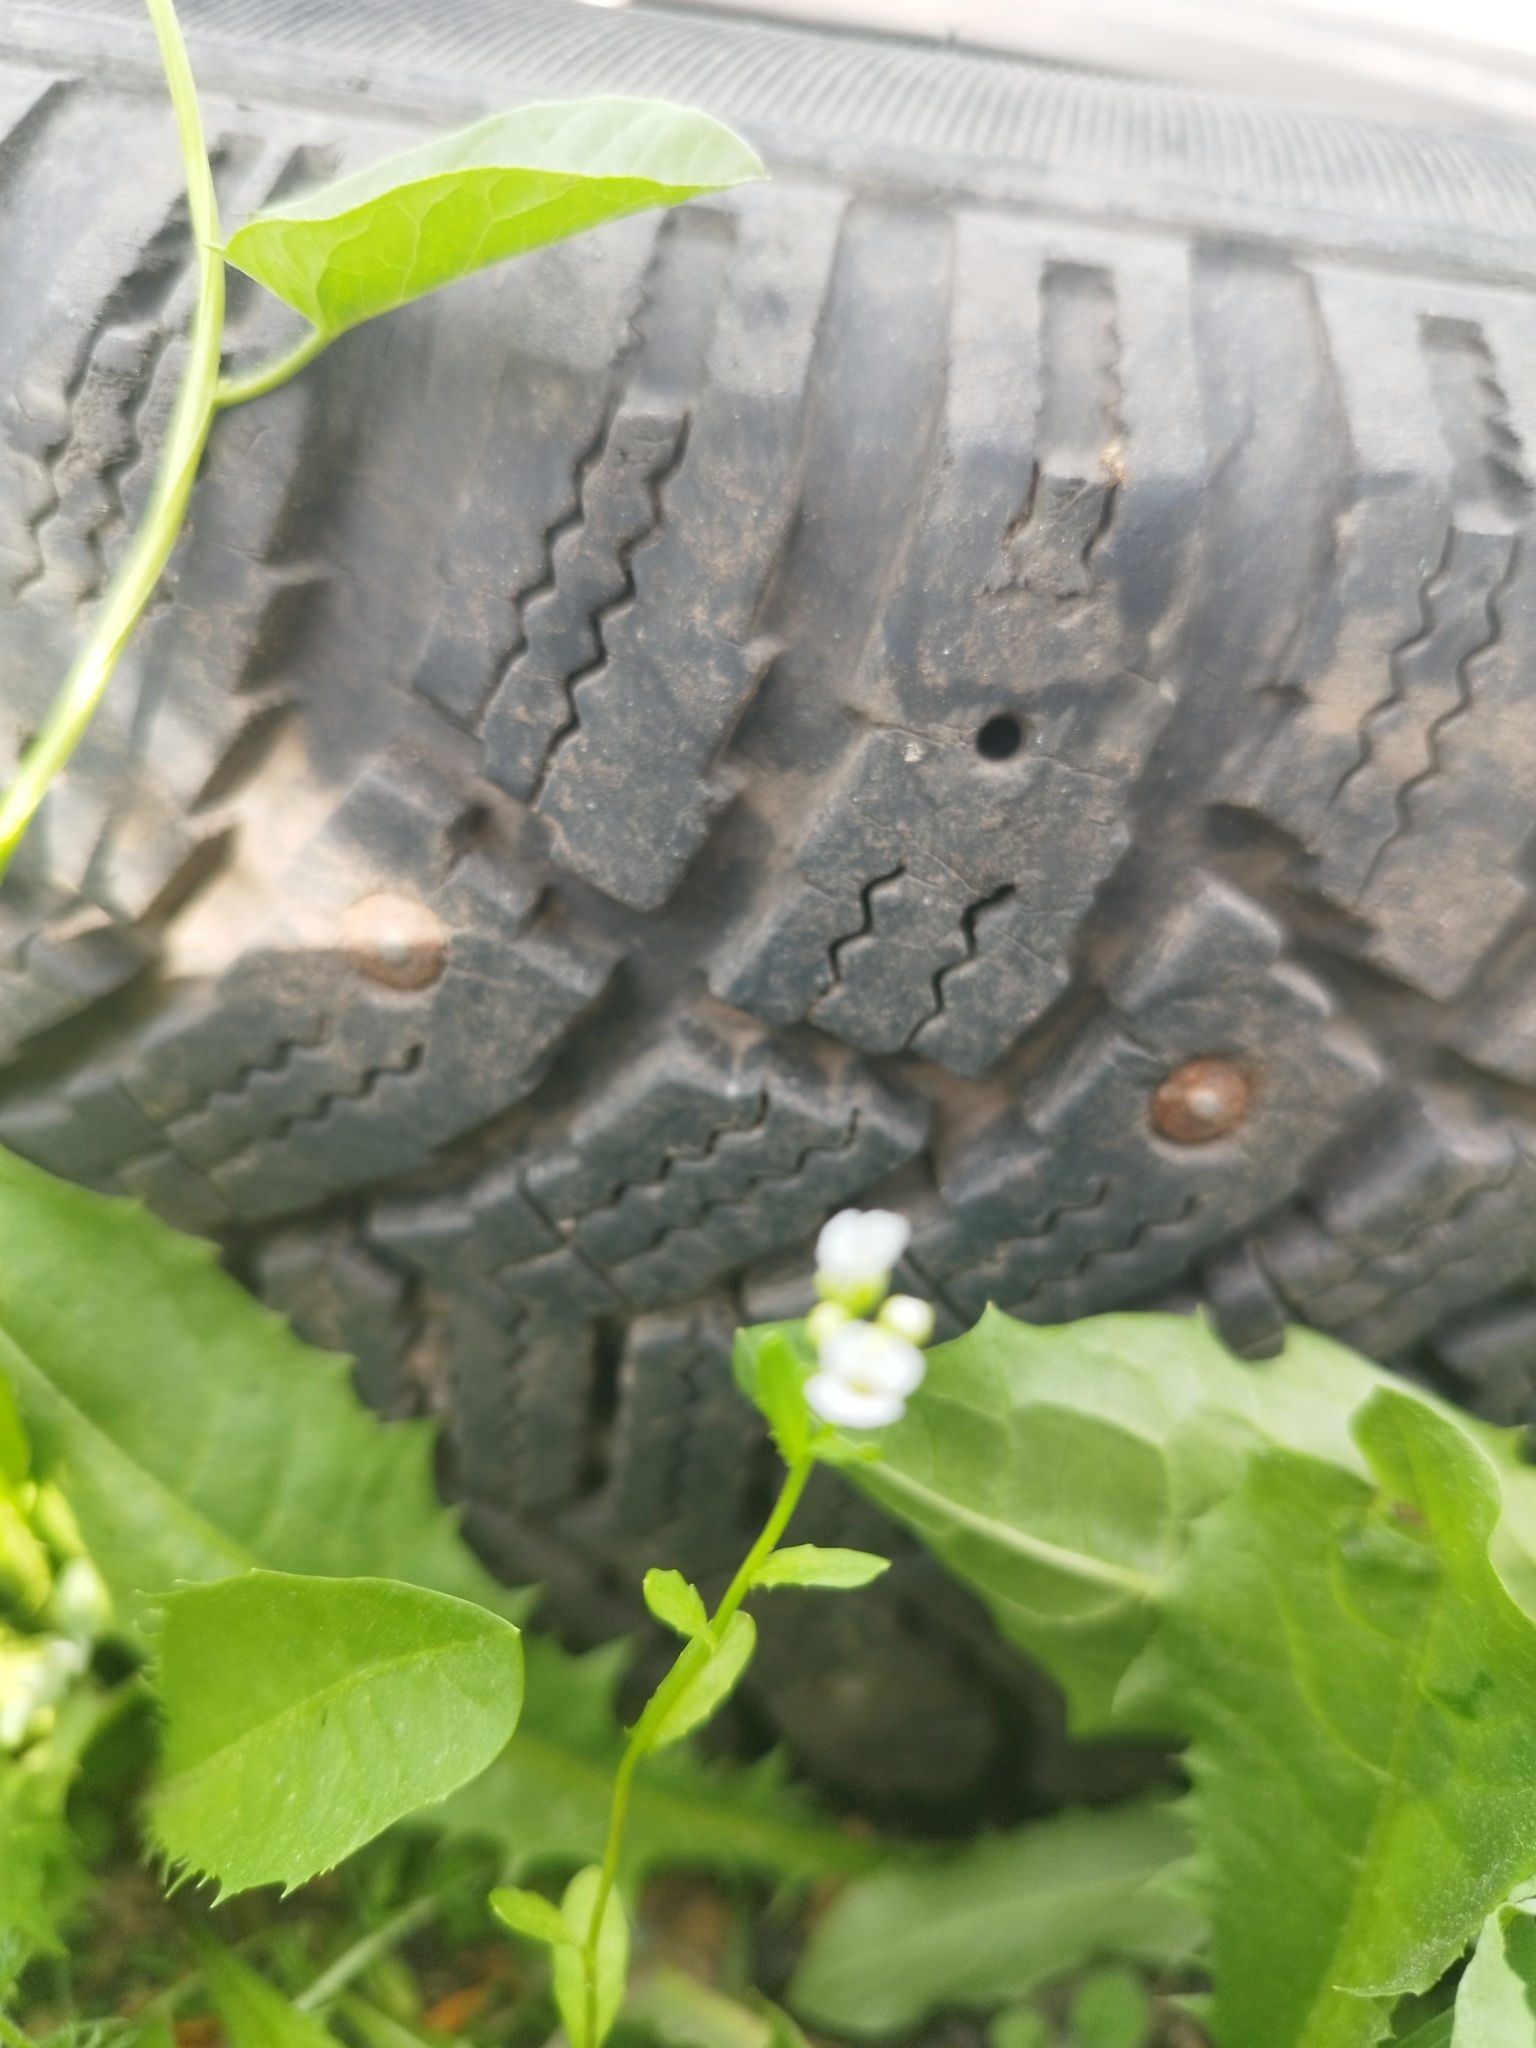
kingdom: Plantae
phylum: Tracheophyta
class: Magnoliopsida
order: Brassicales
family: Brassicaceae
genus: Thlaspi
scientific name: Thlaspi arvense
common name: Field pennycress
